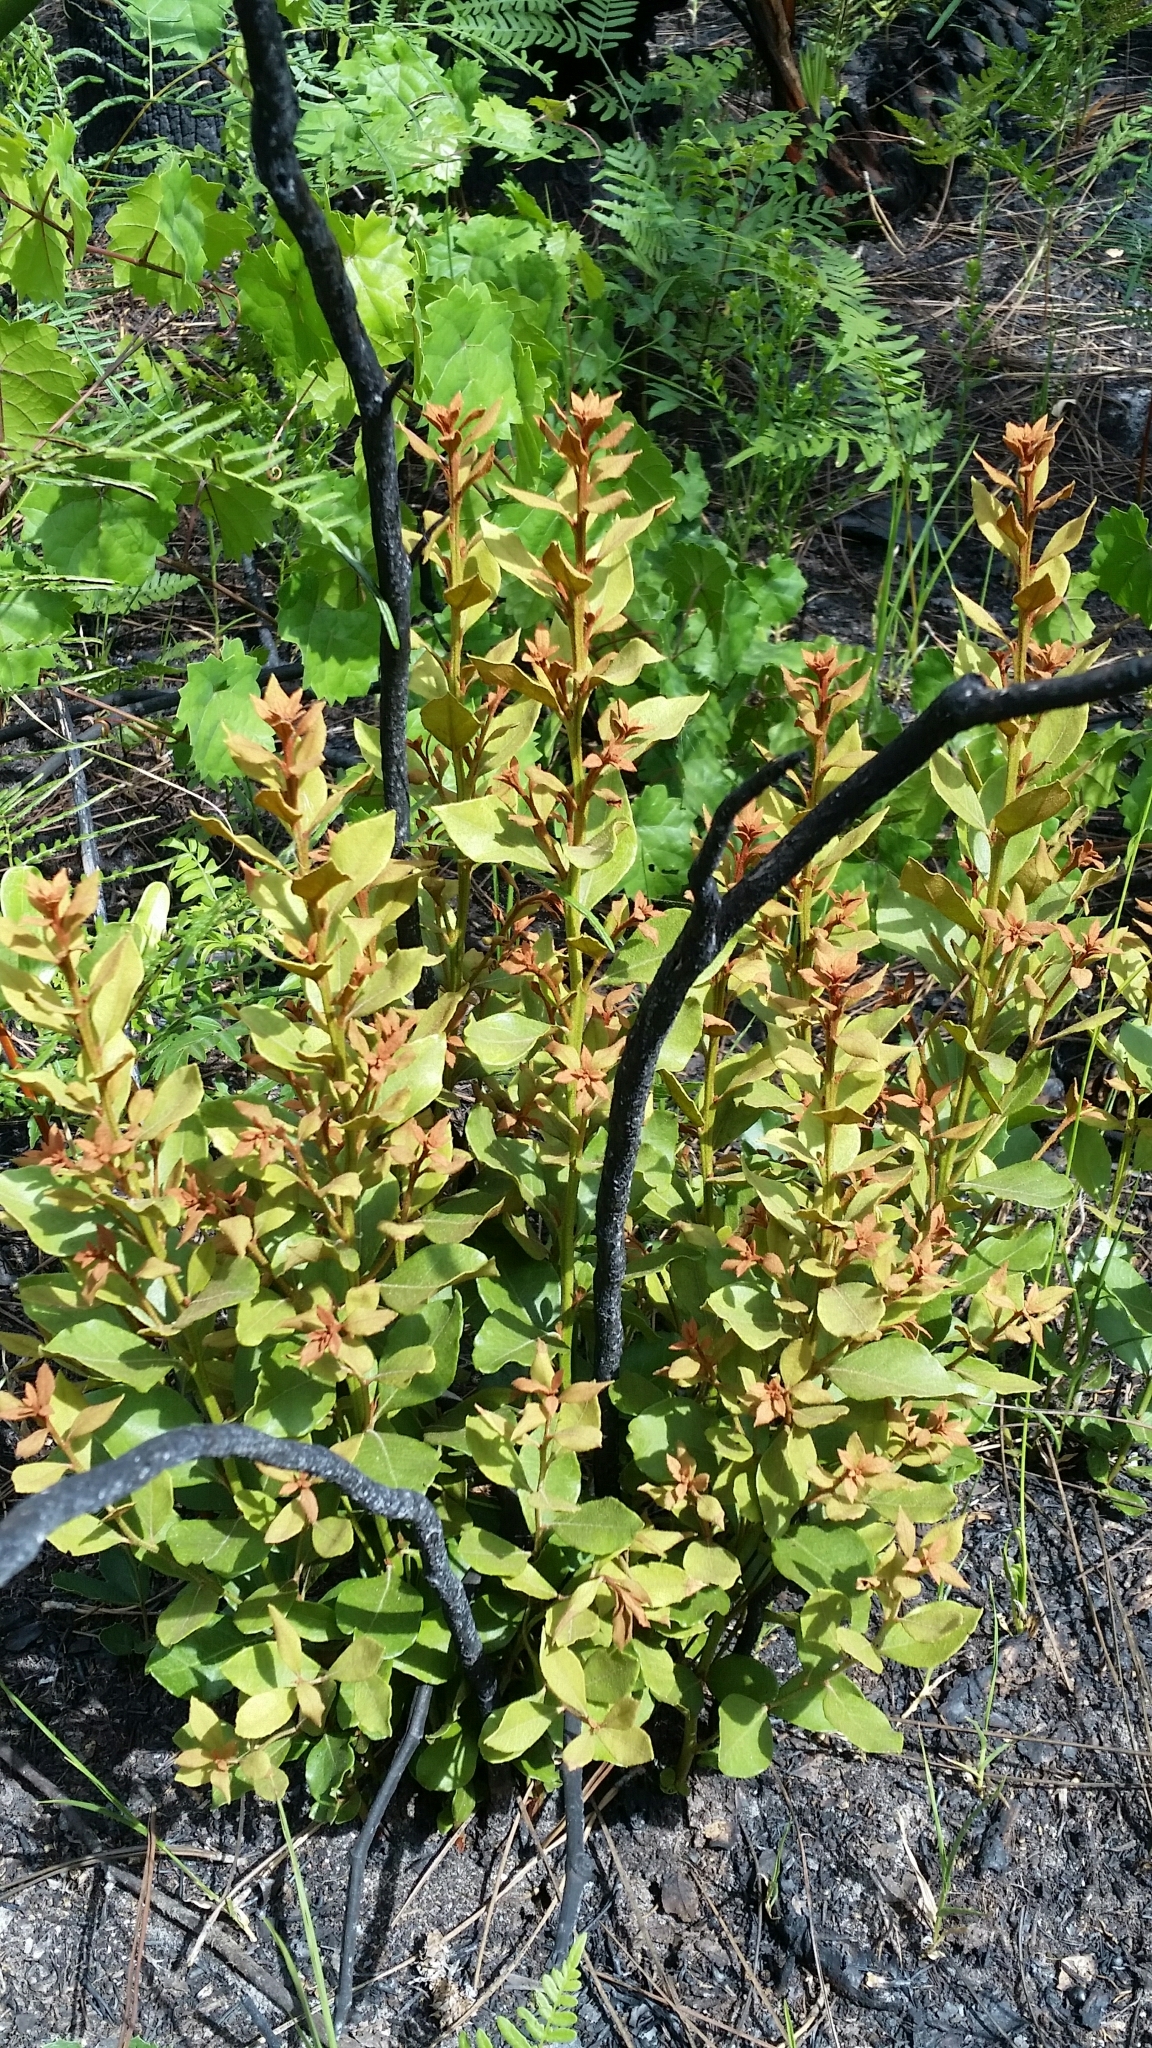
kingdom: Plantae
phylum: Tracheophyta
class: Magnoliopsida
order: Ericales
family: Ericaceae
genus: Lyonia
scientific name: Lyonia fruticosa
